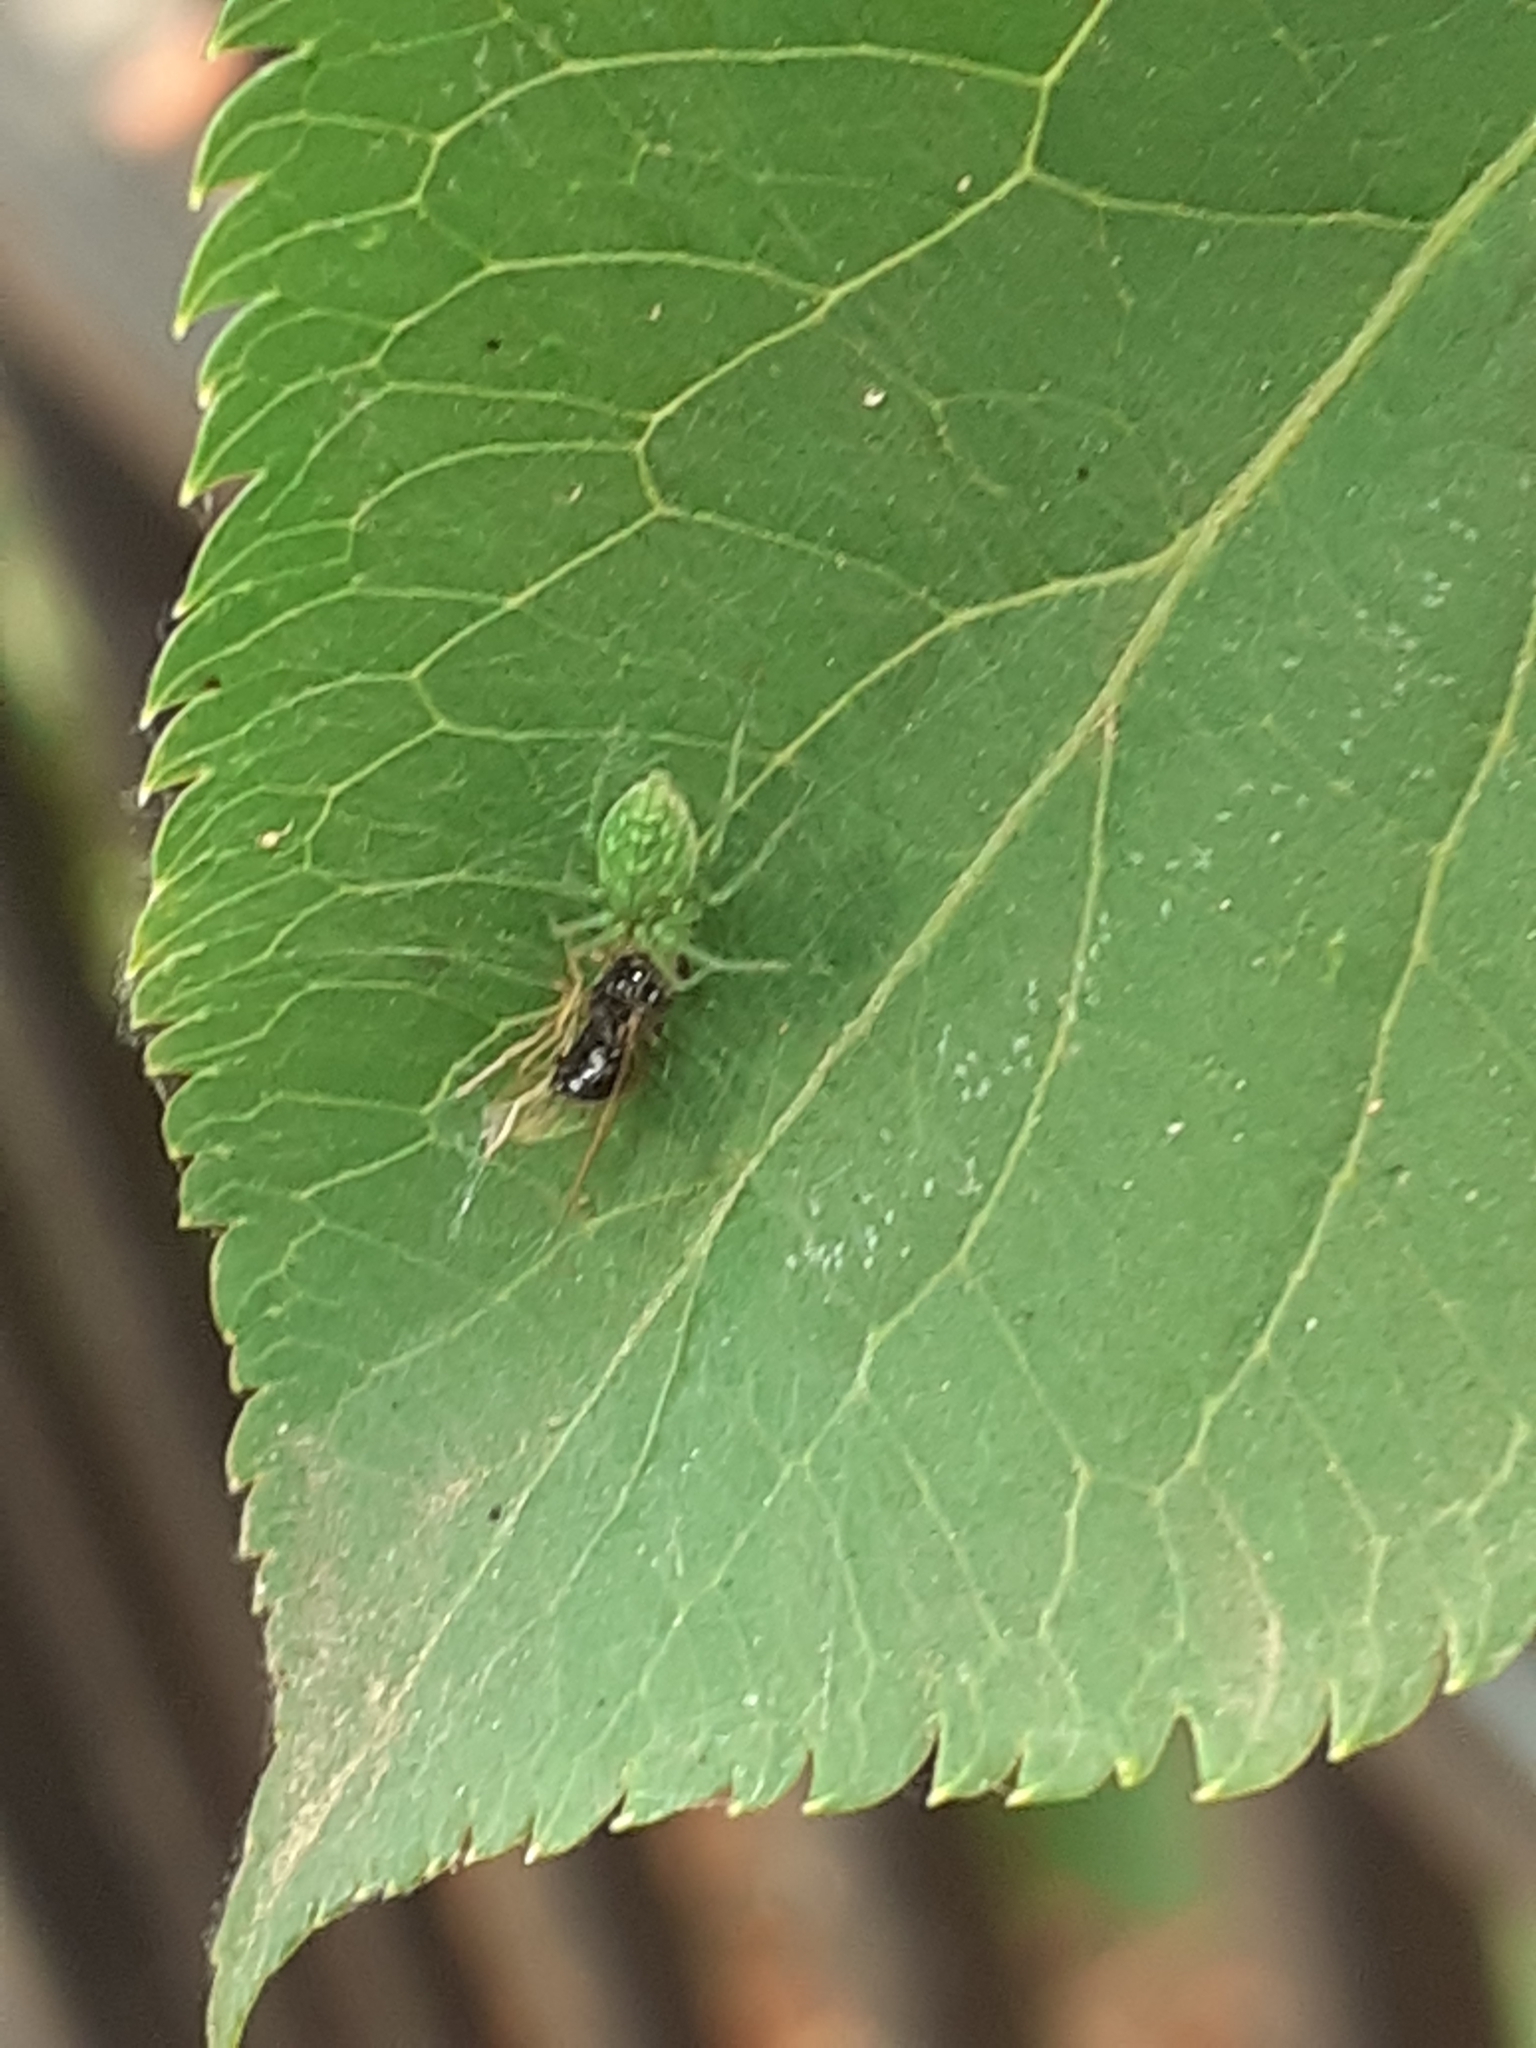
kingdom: Animalia
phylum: Arthropoda
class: Arachnida
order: Araneae
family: Dictynidae
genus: Nigma
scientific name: Nigma walckenaeri
